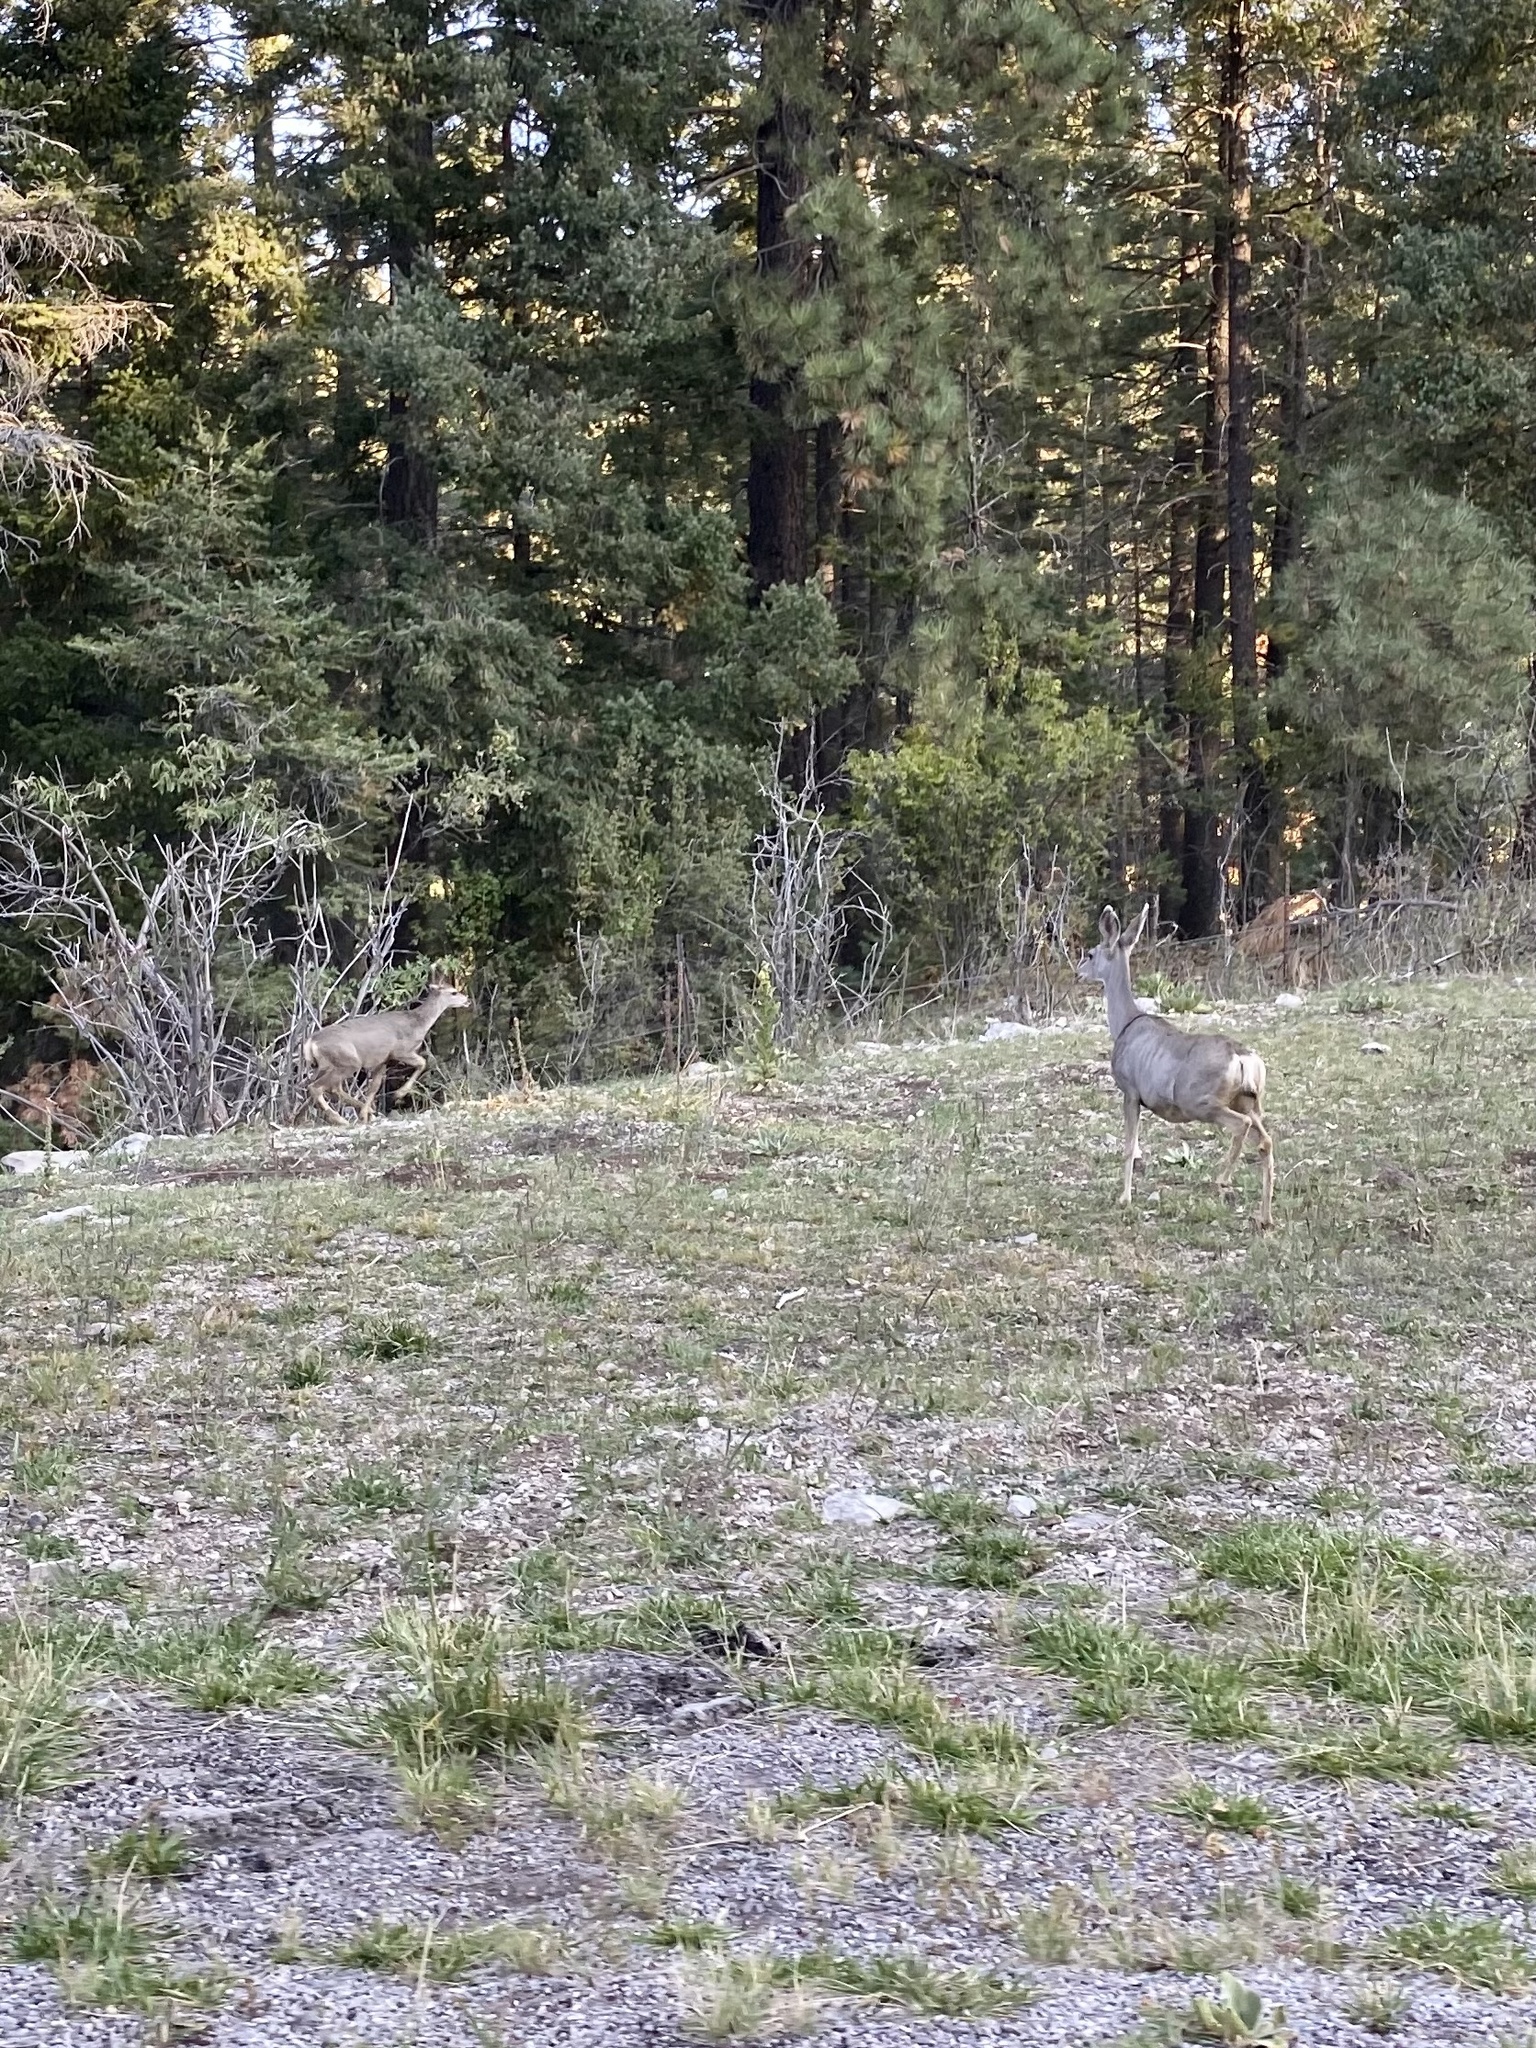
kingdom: Animalia
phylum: Chordata
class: Mammalia
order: Artiodactyla
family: Cervidae
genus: Odocoileus
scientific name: Odocoileus hemionus
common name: Mule deer
